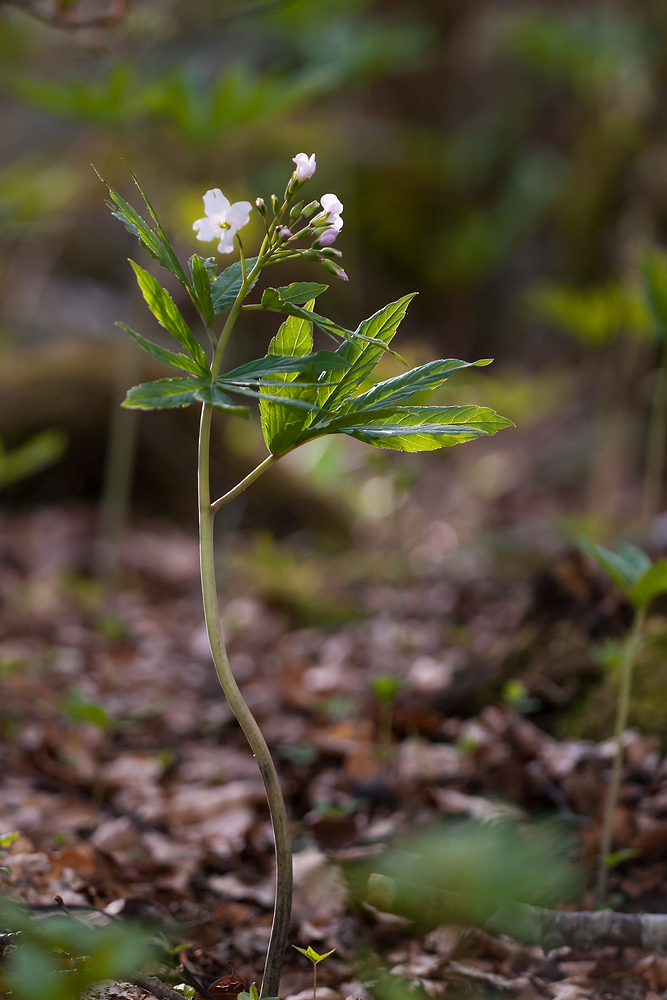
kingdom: Plantae
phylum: Tracheophyta
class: Magnoliopsida
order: Brassicales
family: Brassicaceae
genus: Cardamine
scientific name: Cardamine heptaphylla
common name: Pinnate coralroot
